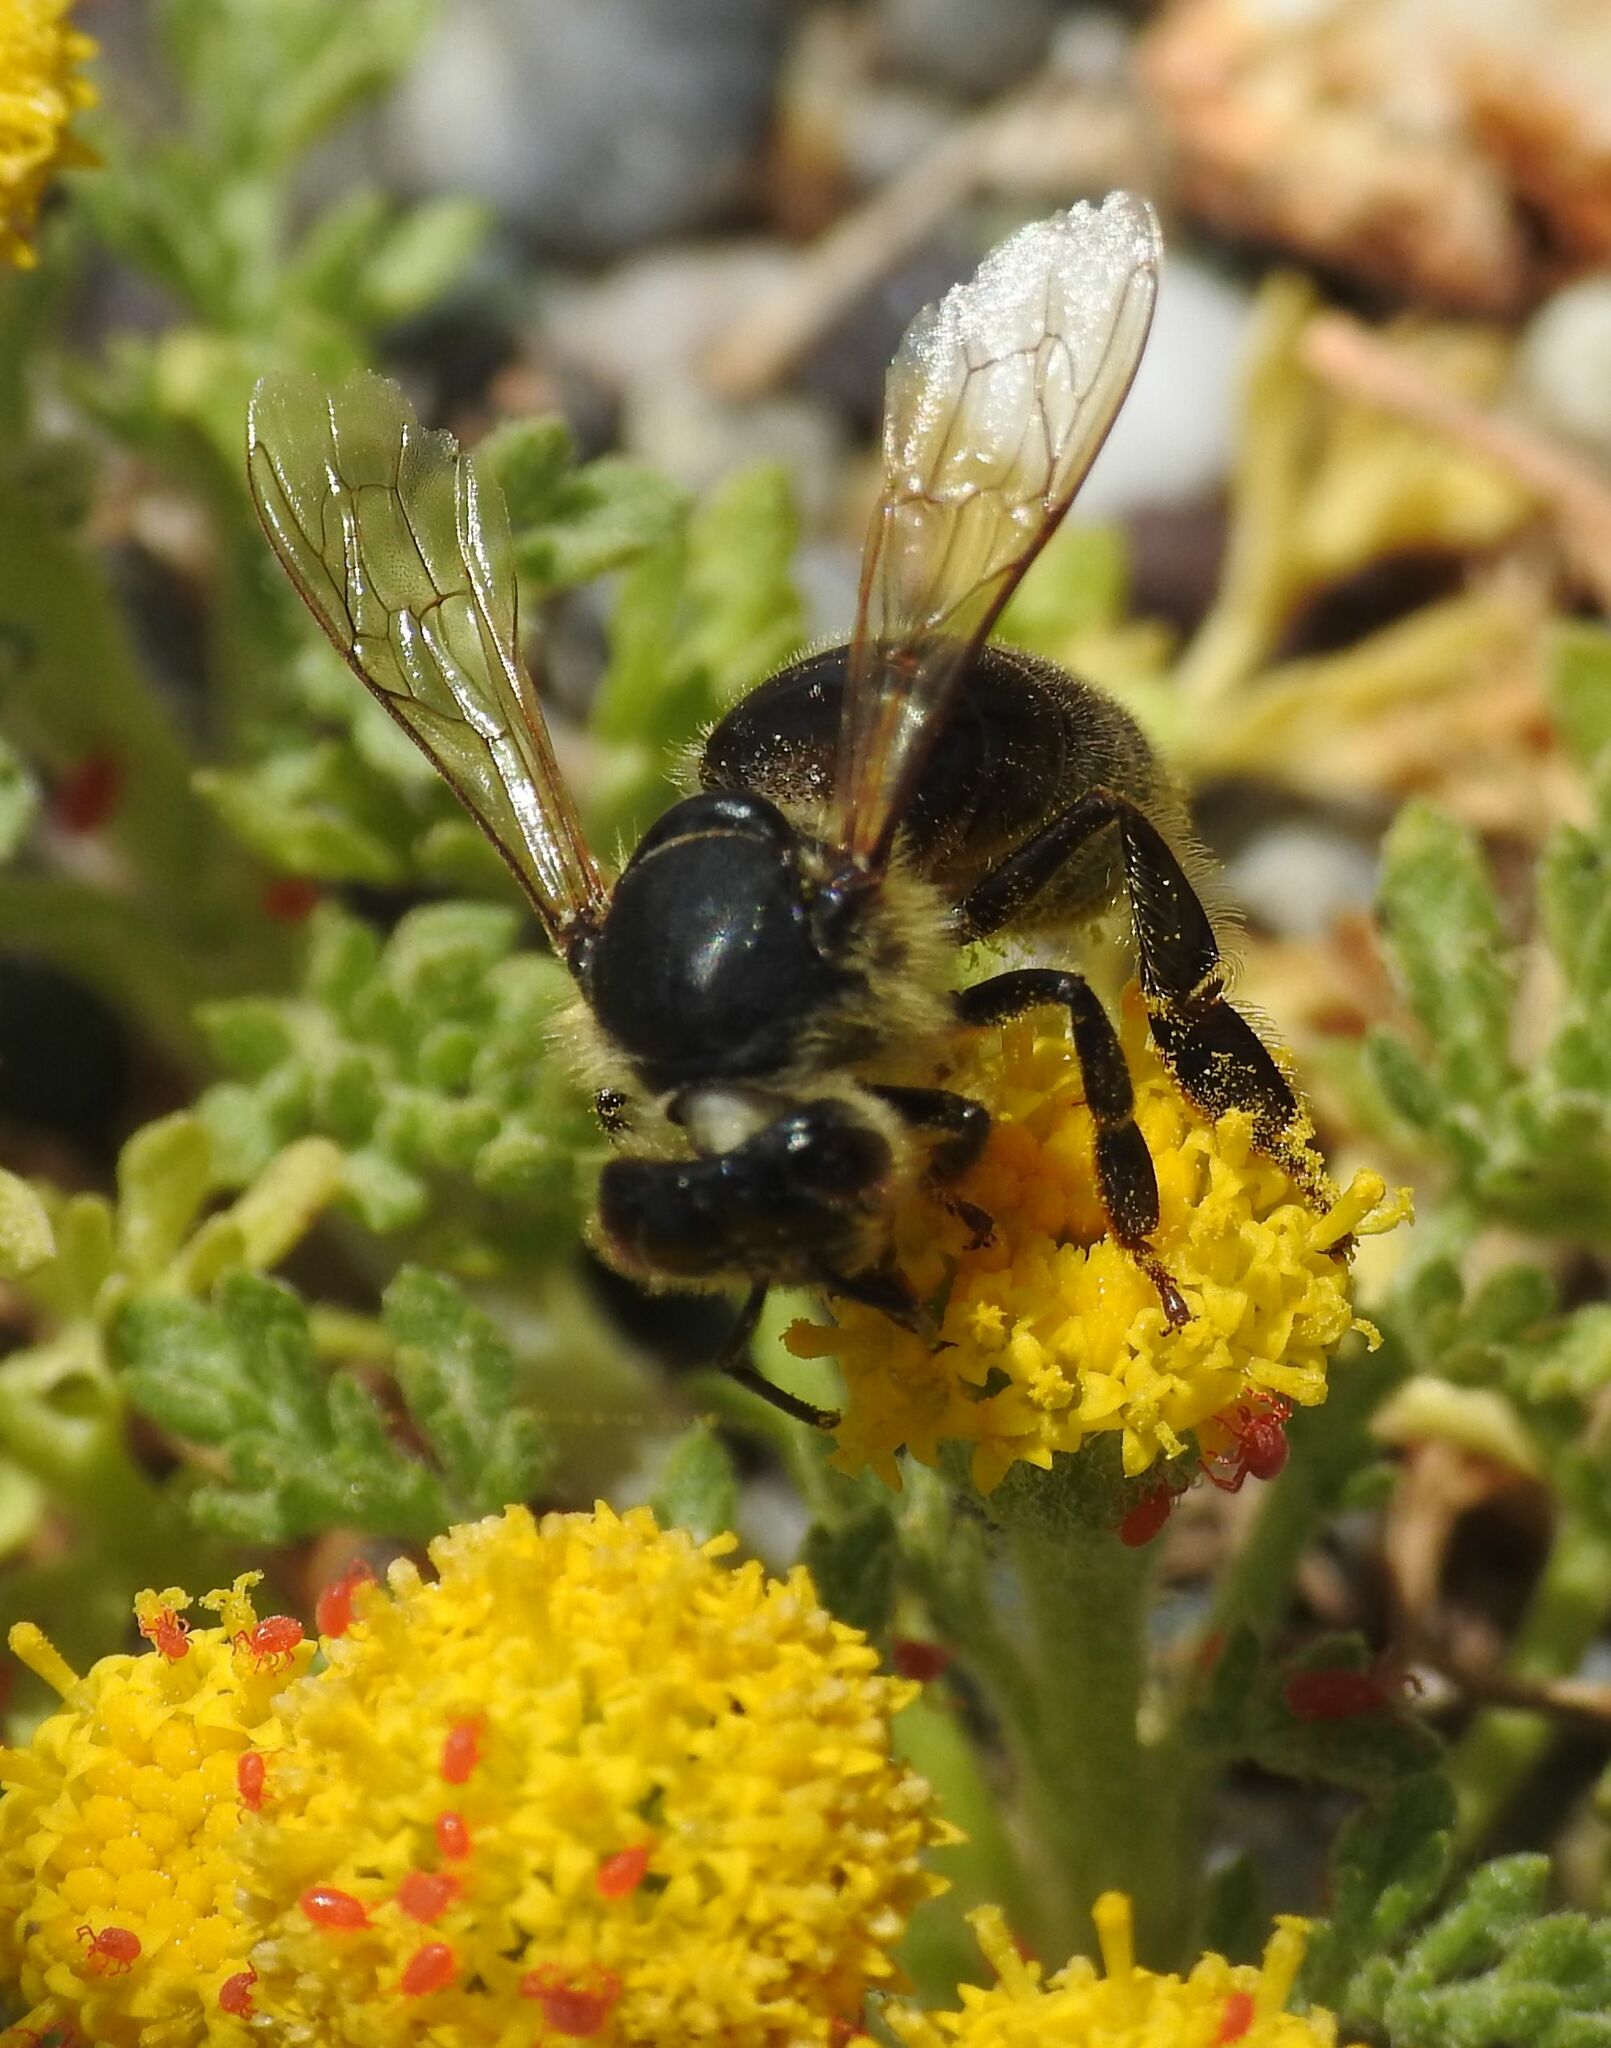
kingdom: Animalia
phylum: Arthropoda
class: Insecta
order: Hymenoptera
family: Apidae
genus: Apis
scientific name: Apis mellifera
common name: Honey bee
